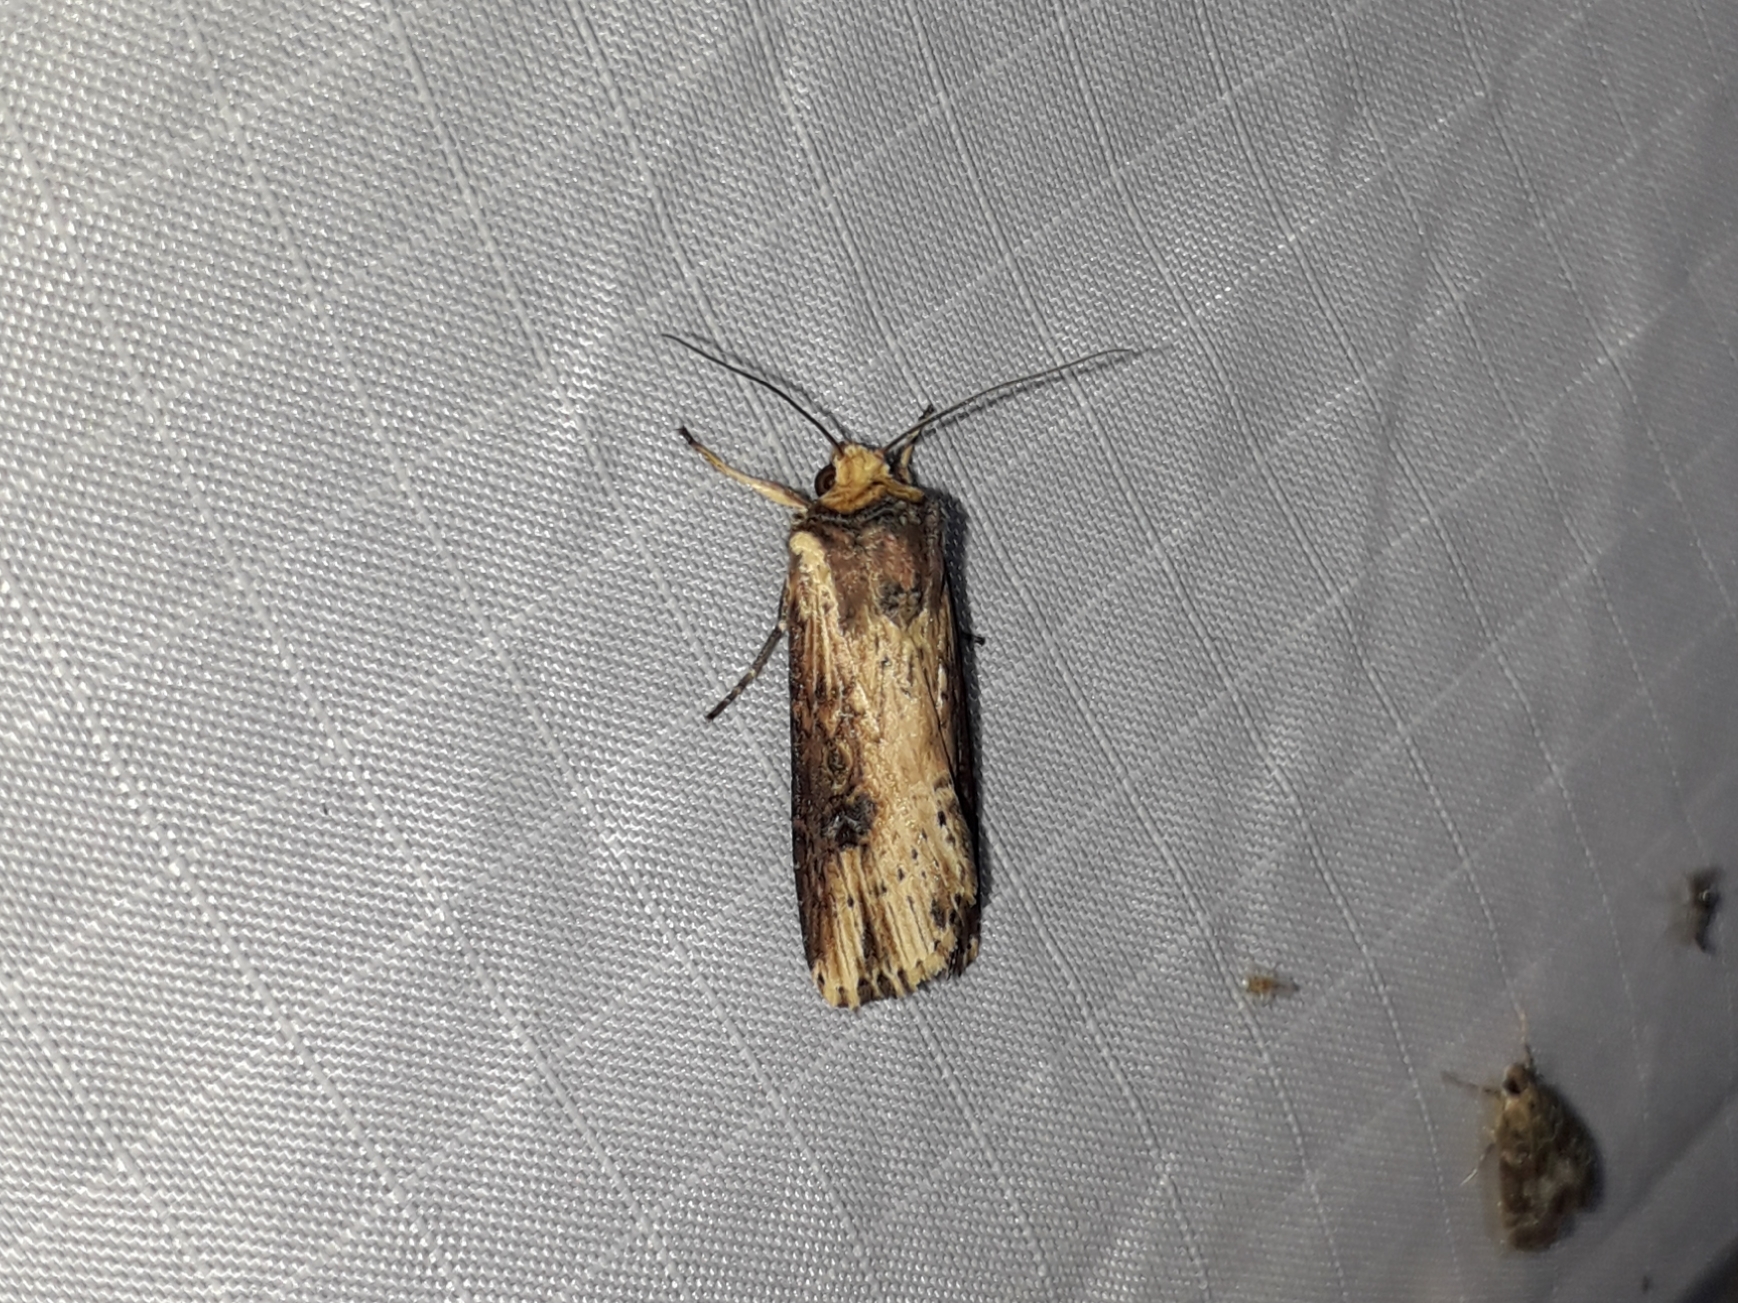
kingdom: Animalia
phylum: Arthropoda
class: Insecta
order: Lepidoptera
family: Noctuidae
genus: Axylia
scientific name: Axylia putris
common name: Flame
